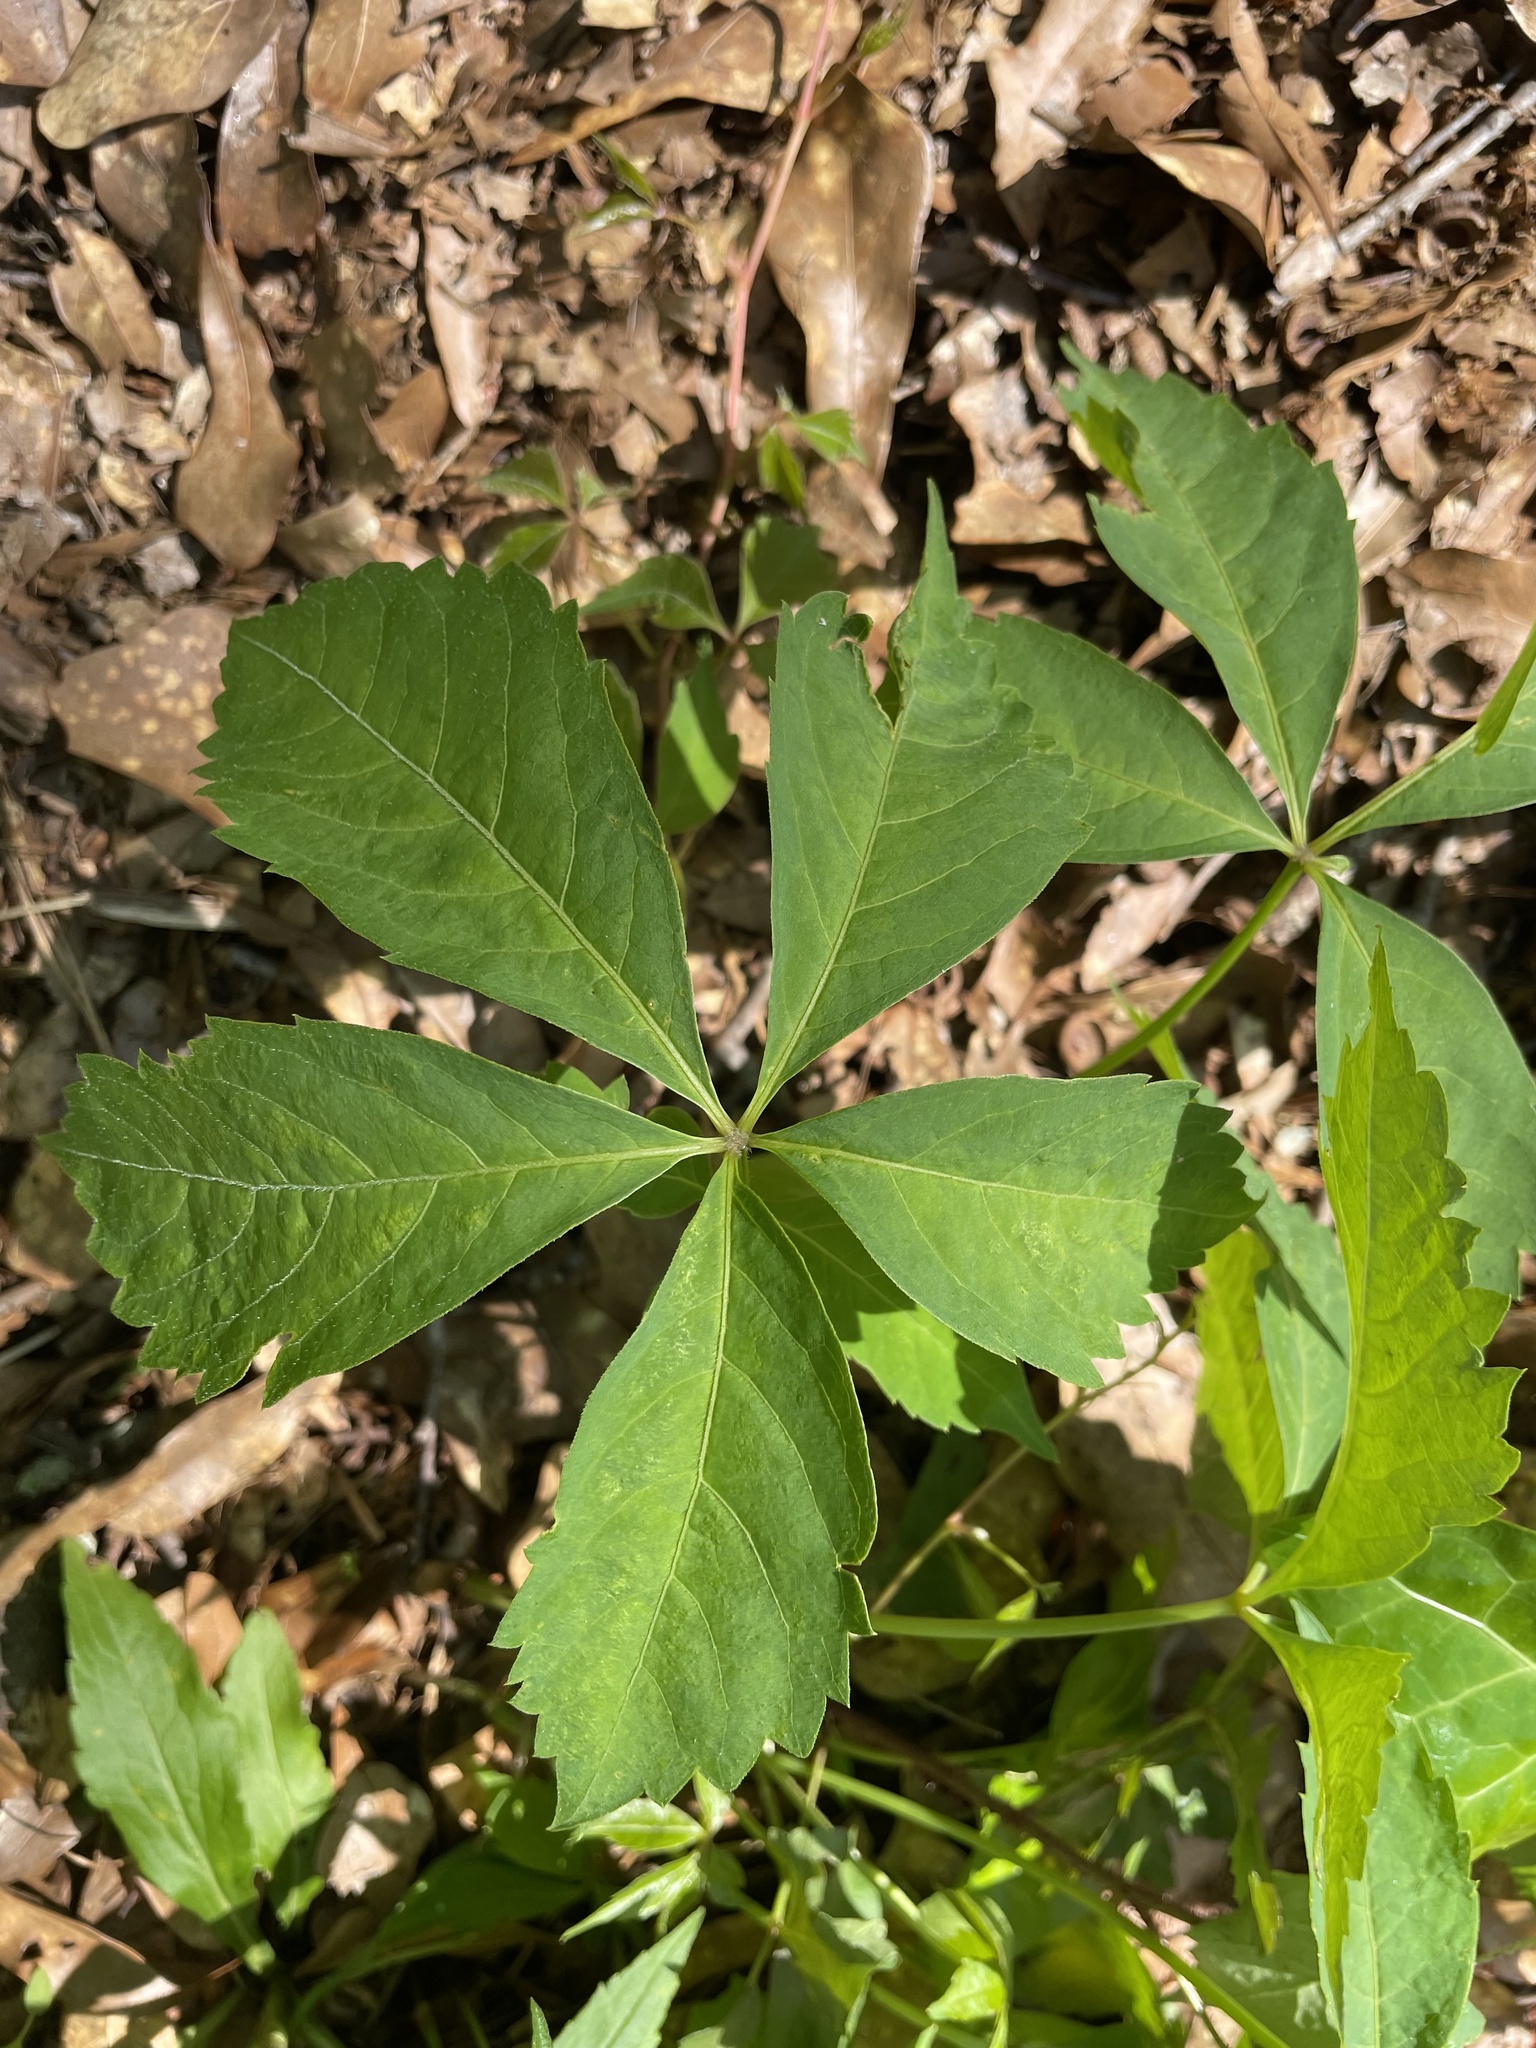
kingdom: Plantae
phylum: Tracheophyta
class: Magnoliopsida
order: Vitales
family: Vitaceae
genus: Parthenocissus
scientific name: Parthenocissus quinquefolia
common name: Virginia-creeper
